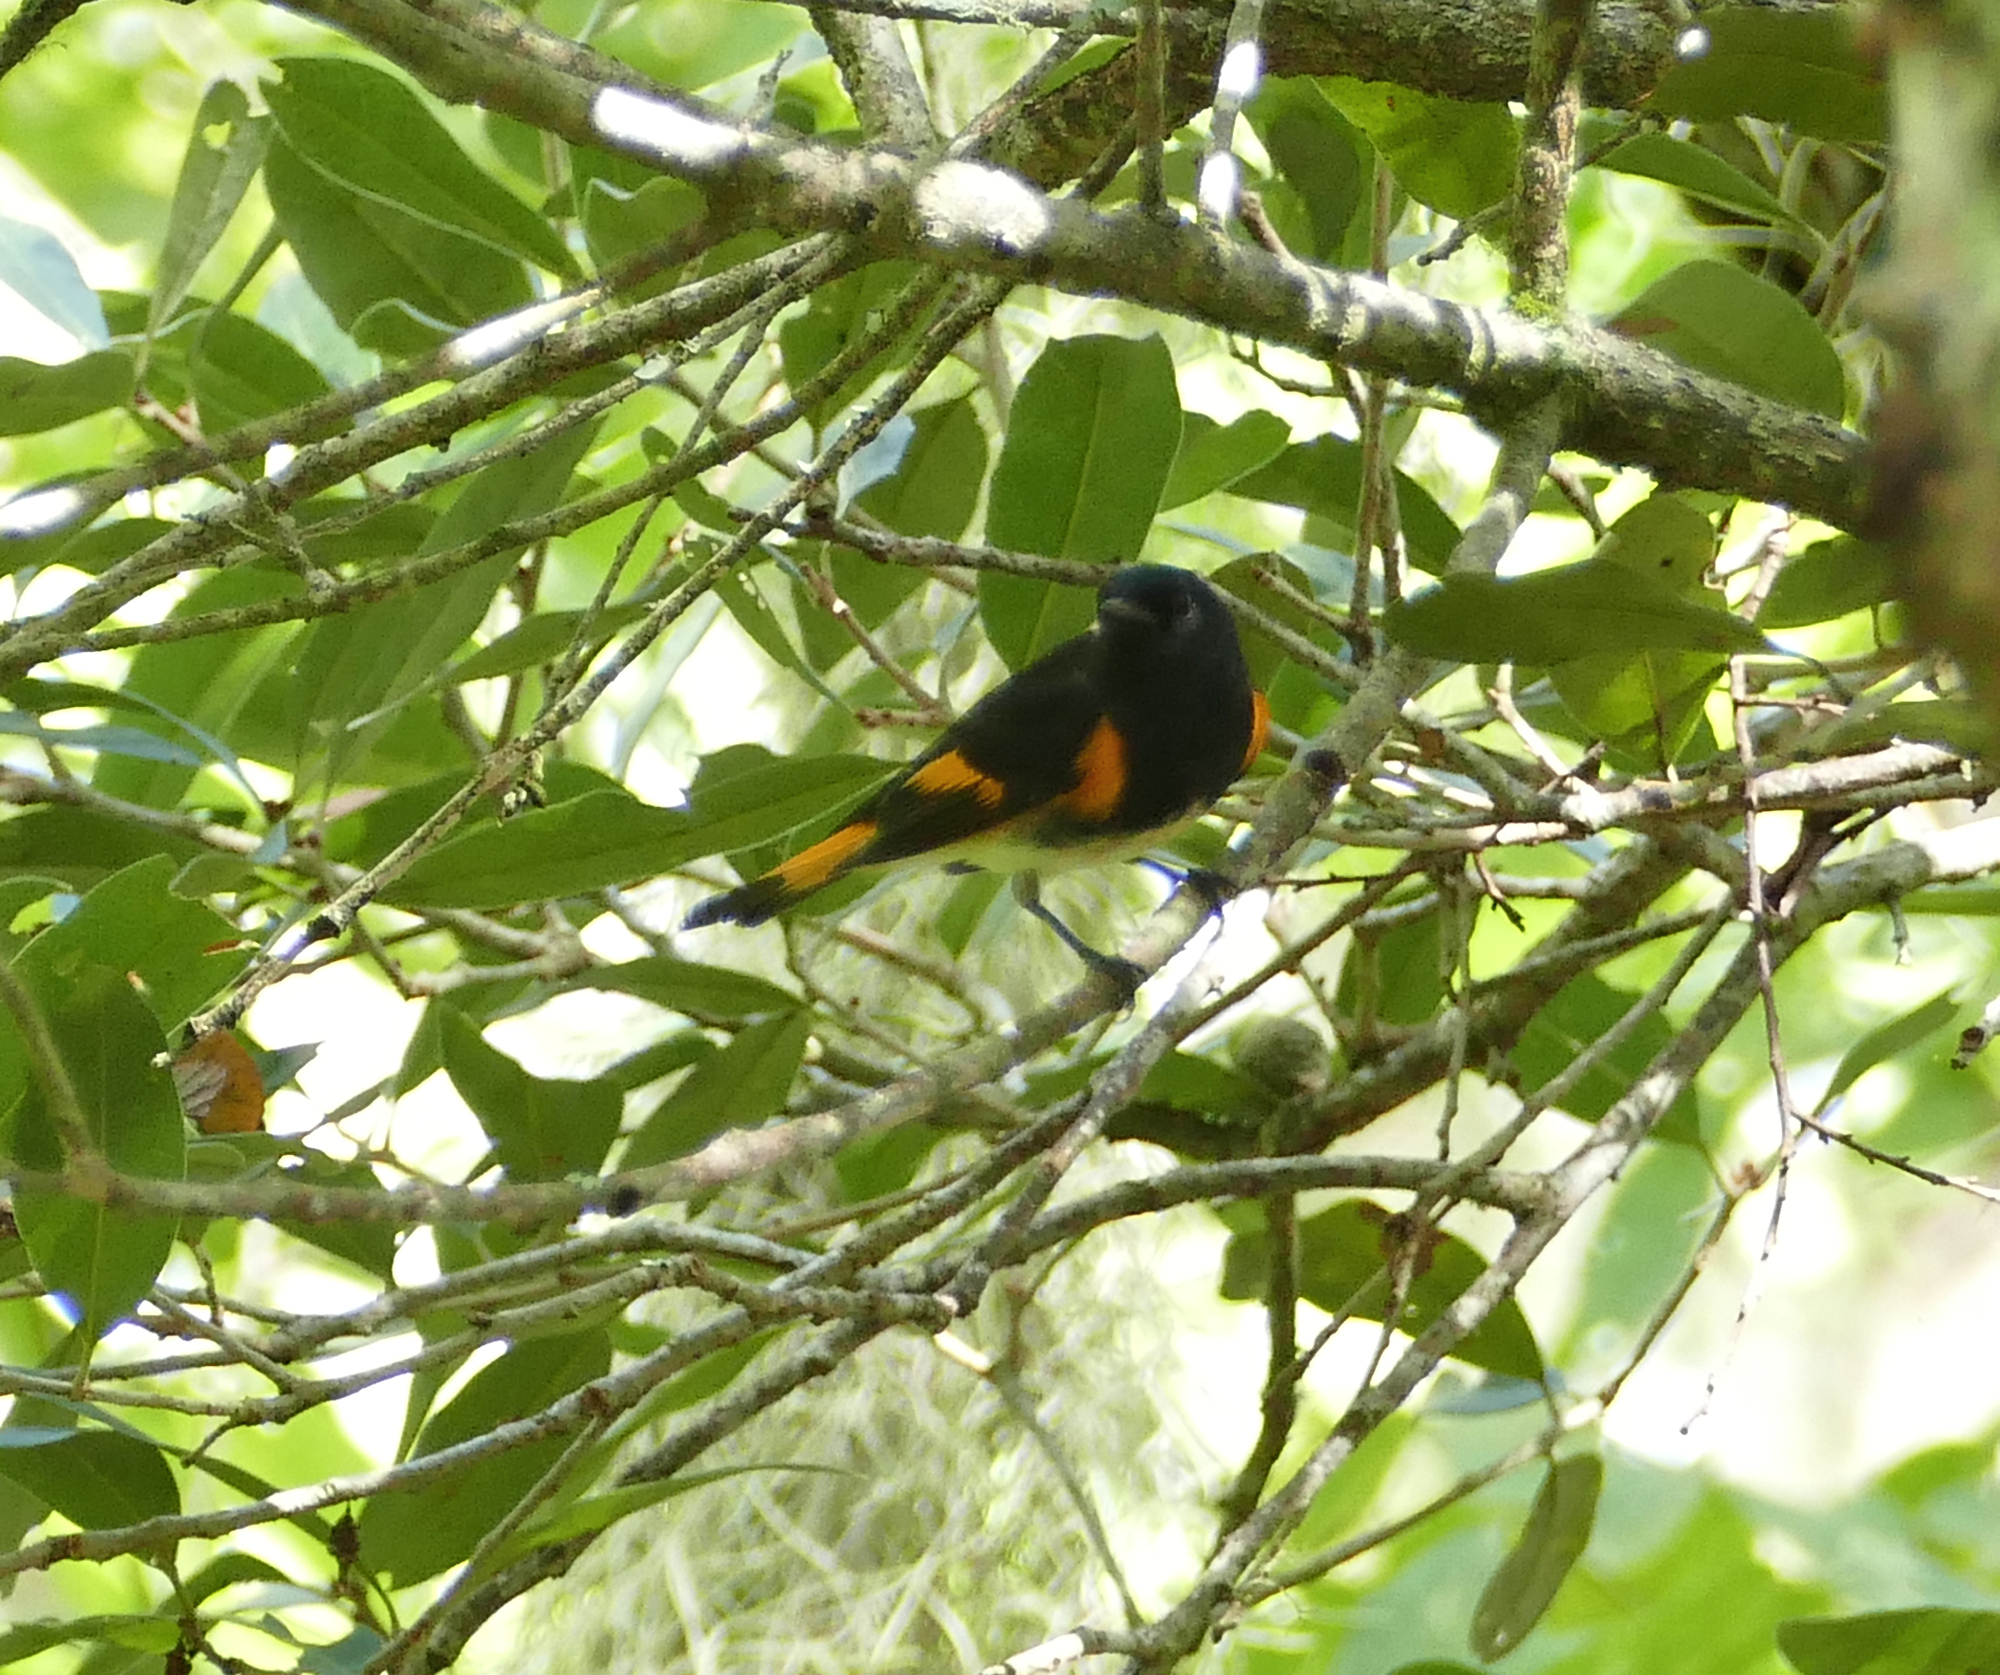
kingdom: Animalia
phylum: Chordata
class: Aves
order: Passeriformes
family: Parulidae
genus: Setophaga
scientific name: Setophaga ruticilla
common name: American redstart
